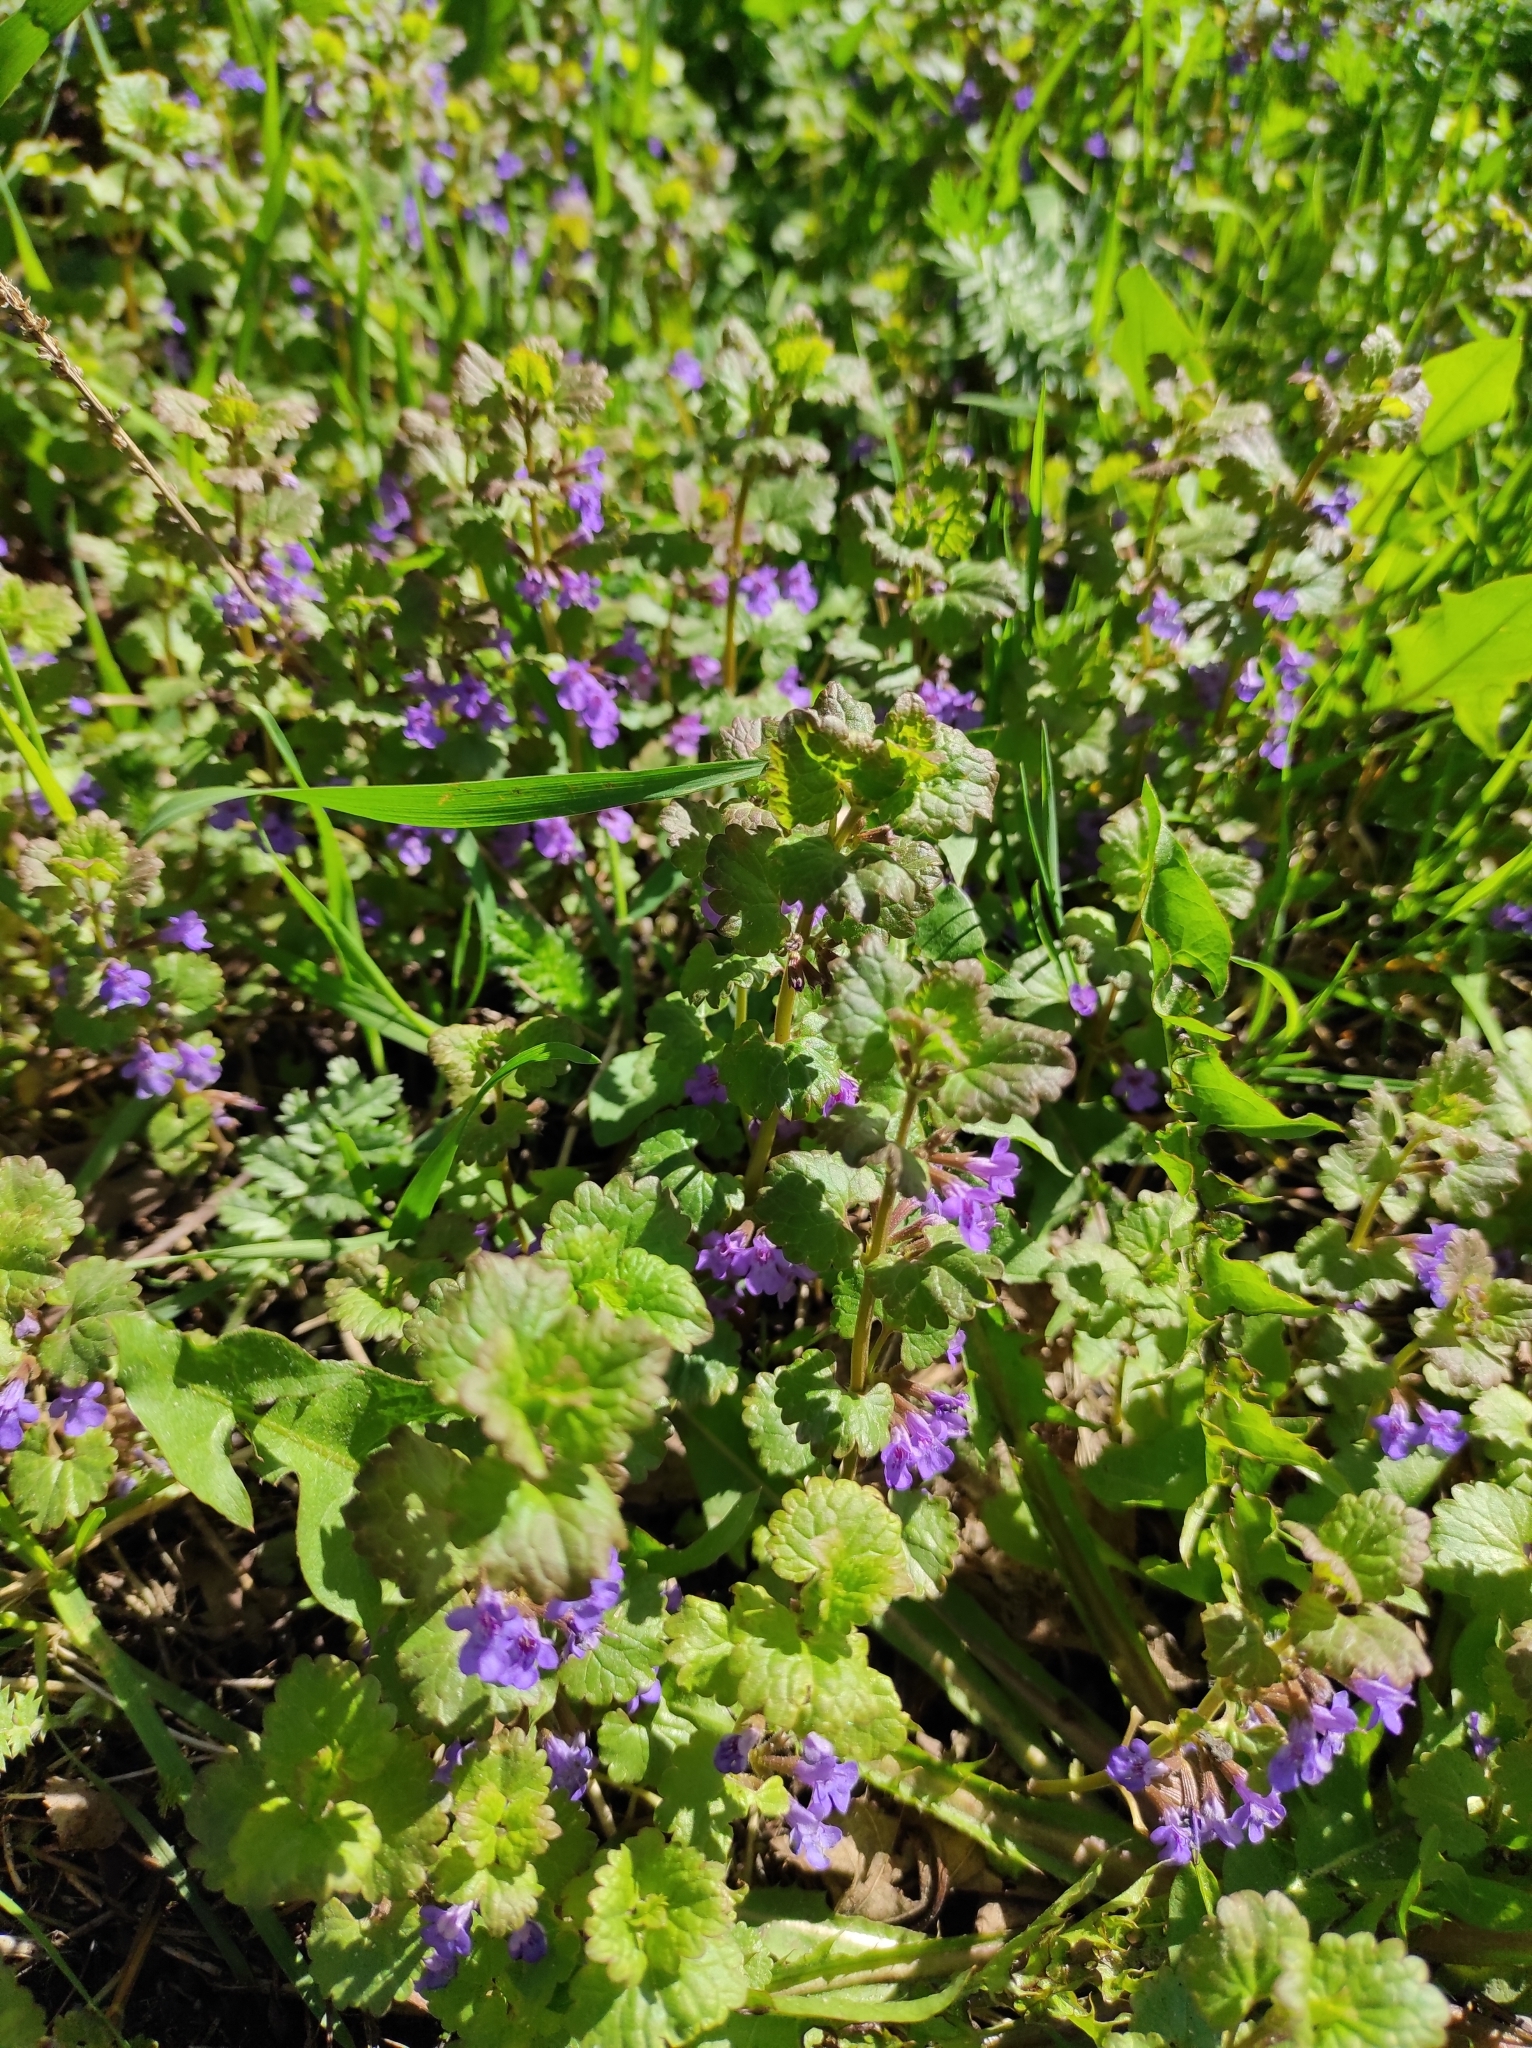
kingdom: Plantae
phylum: Tracheophyta
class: Magnoliopsida
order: Lamiales
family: Lamiaceae
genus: Glechoma
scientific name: Glechoma hederacea
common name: Ground ivy
